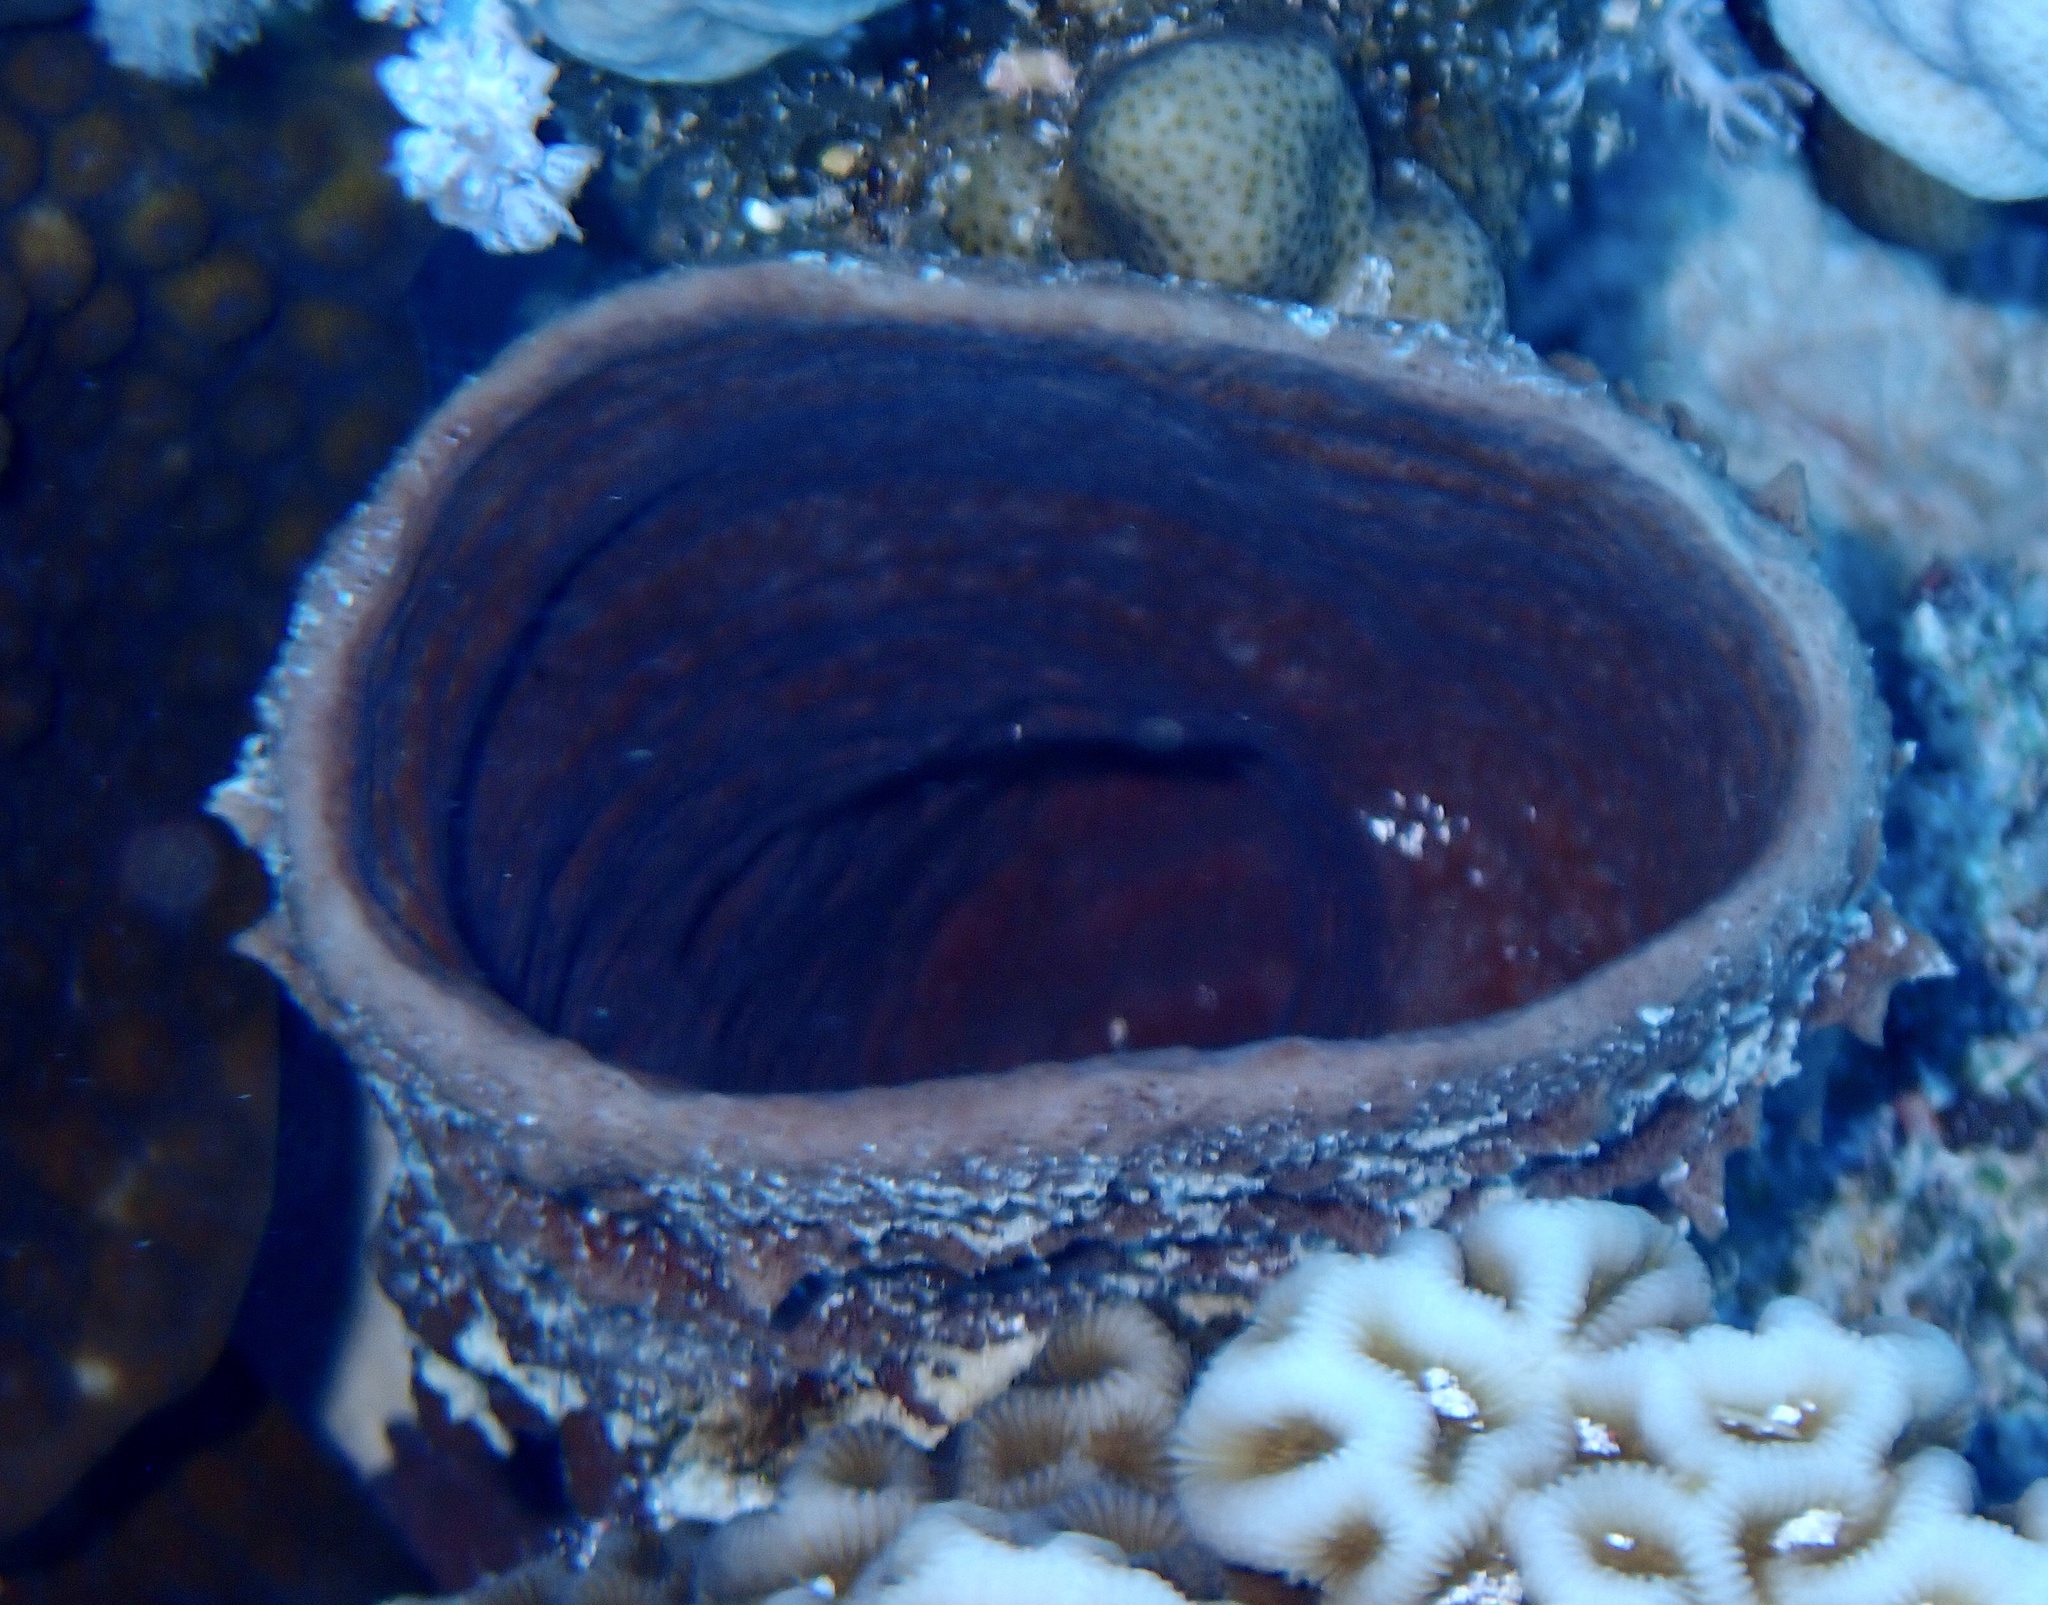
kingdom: Animalia
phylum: Porifera
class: Demospongiae
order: Haplosclerida
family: Callyspongiidae
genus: Callyspongia
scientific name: Callyspongia crassa
